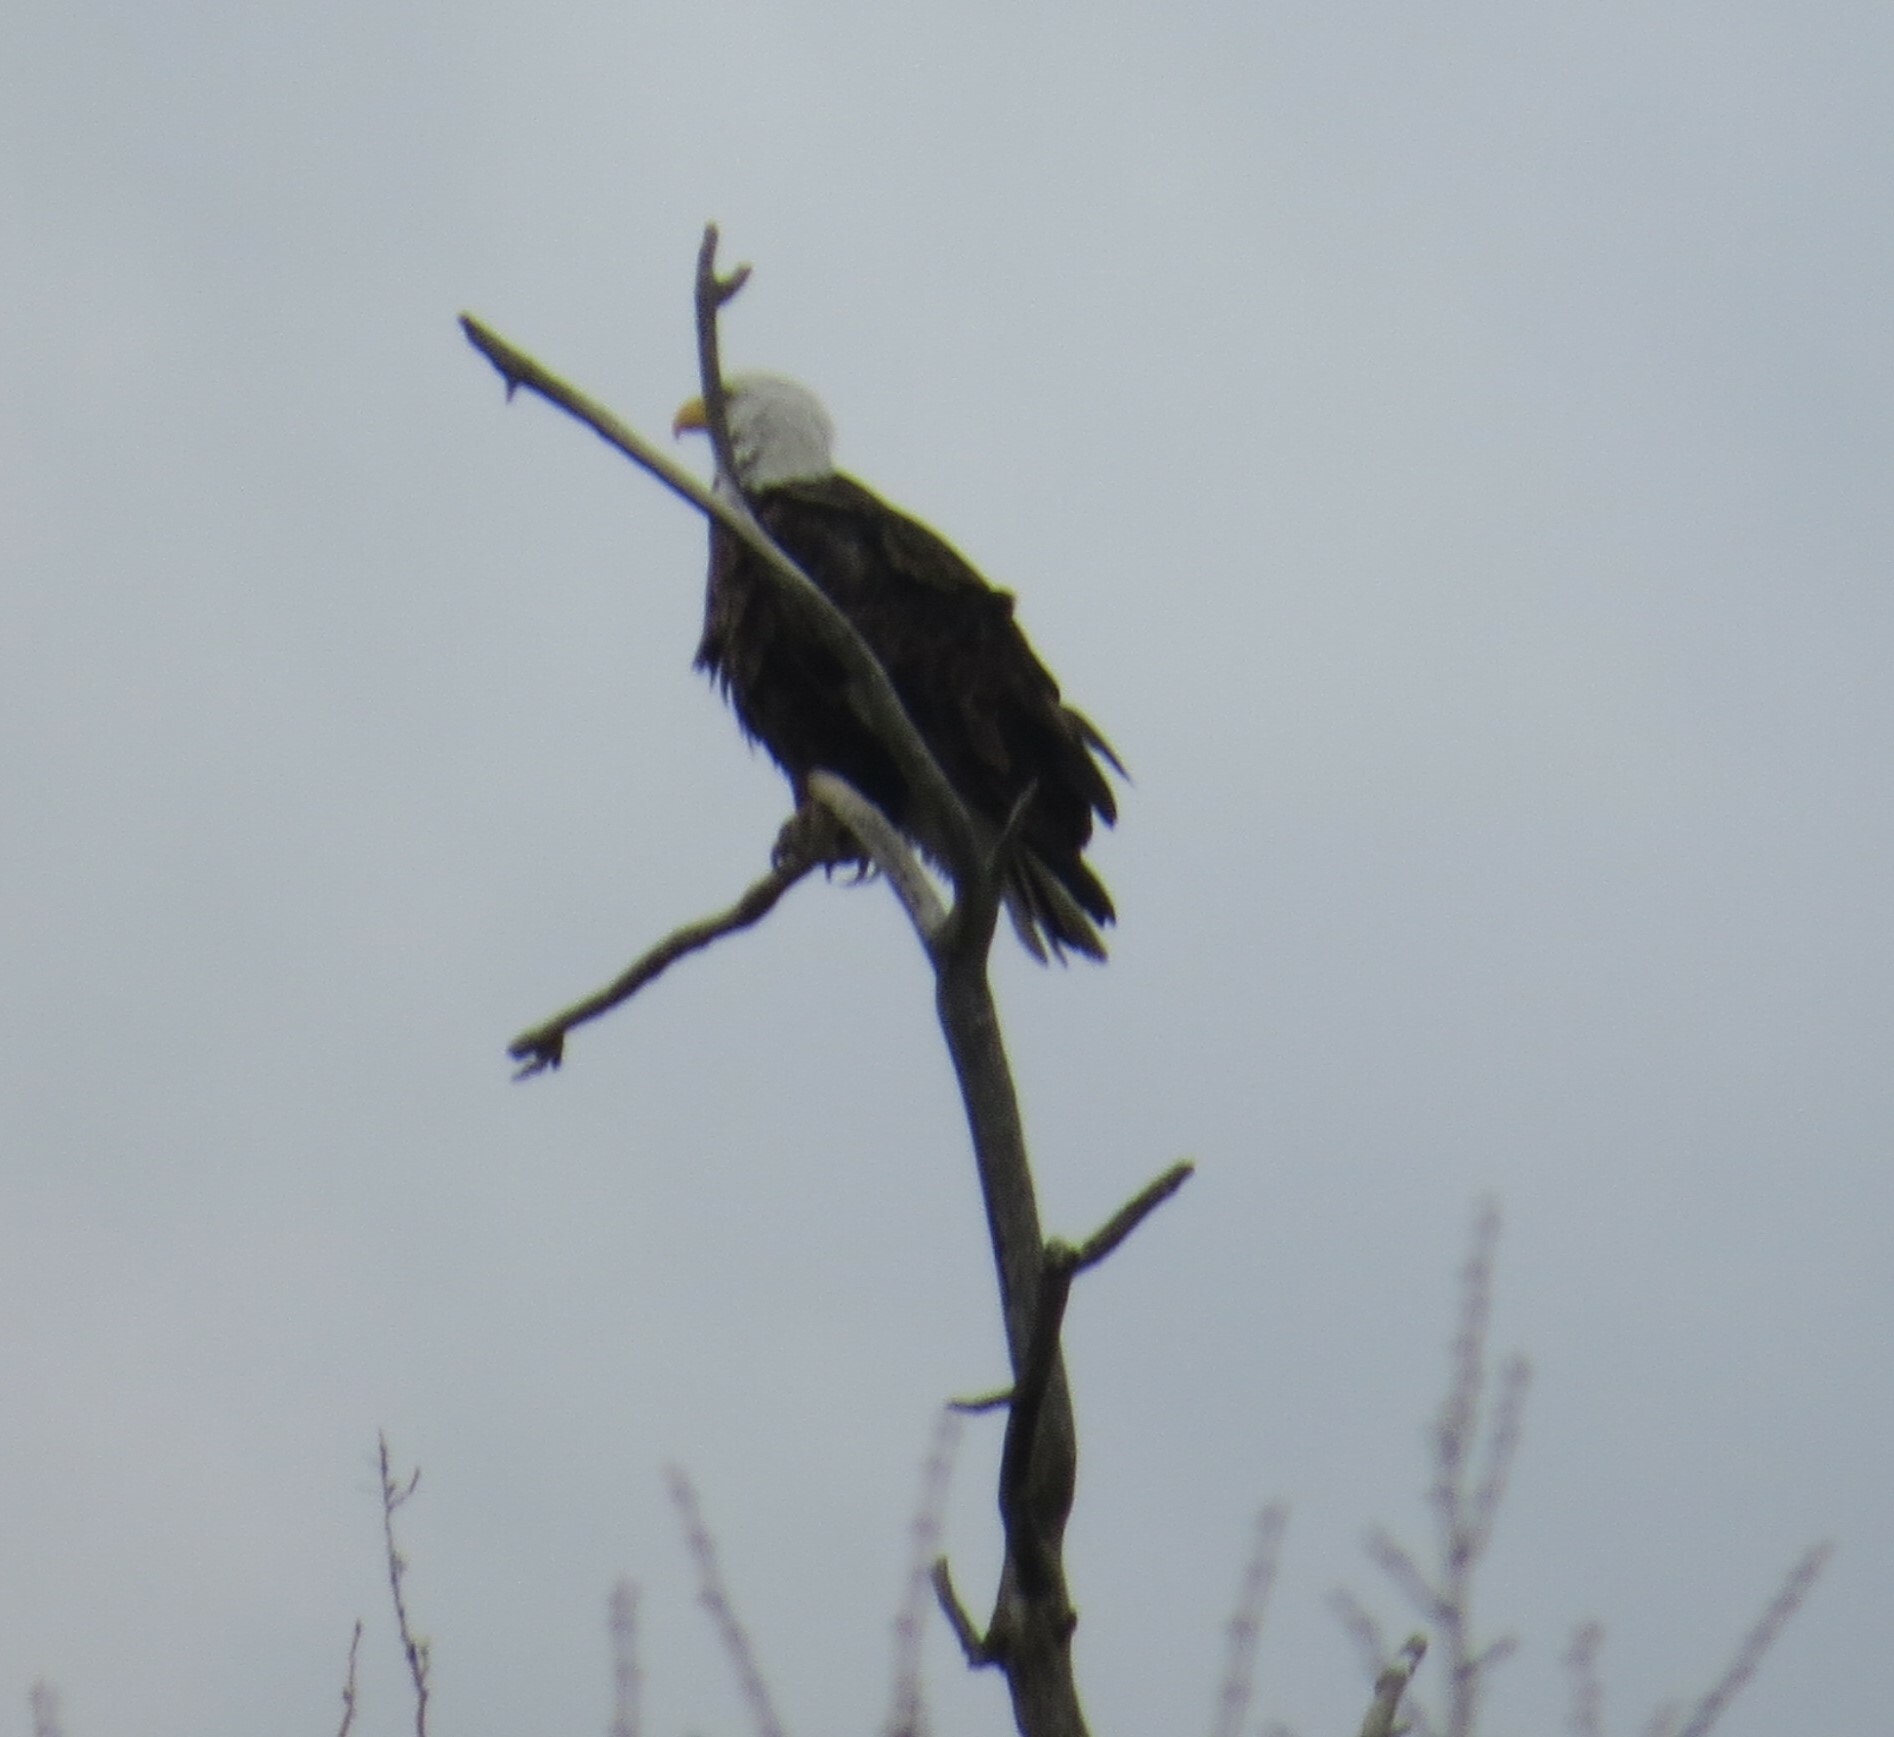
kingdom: Animalia
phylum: Chordata
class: Aves
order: Accipitriformes
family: Accipitridae
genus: Haliaeetus
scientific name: Haliaeetus leucocephalus
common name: Bald eagle
